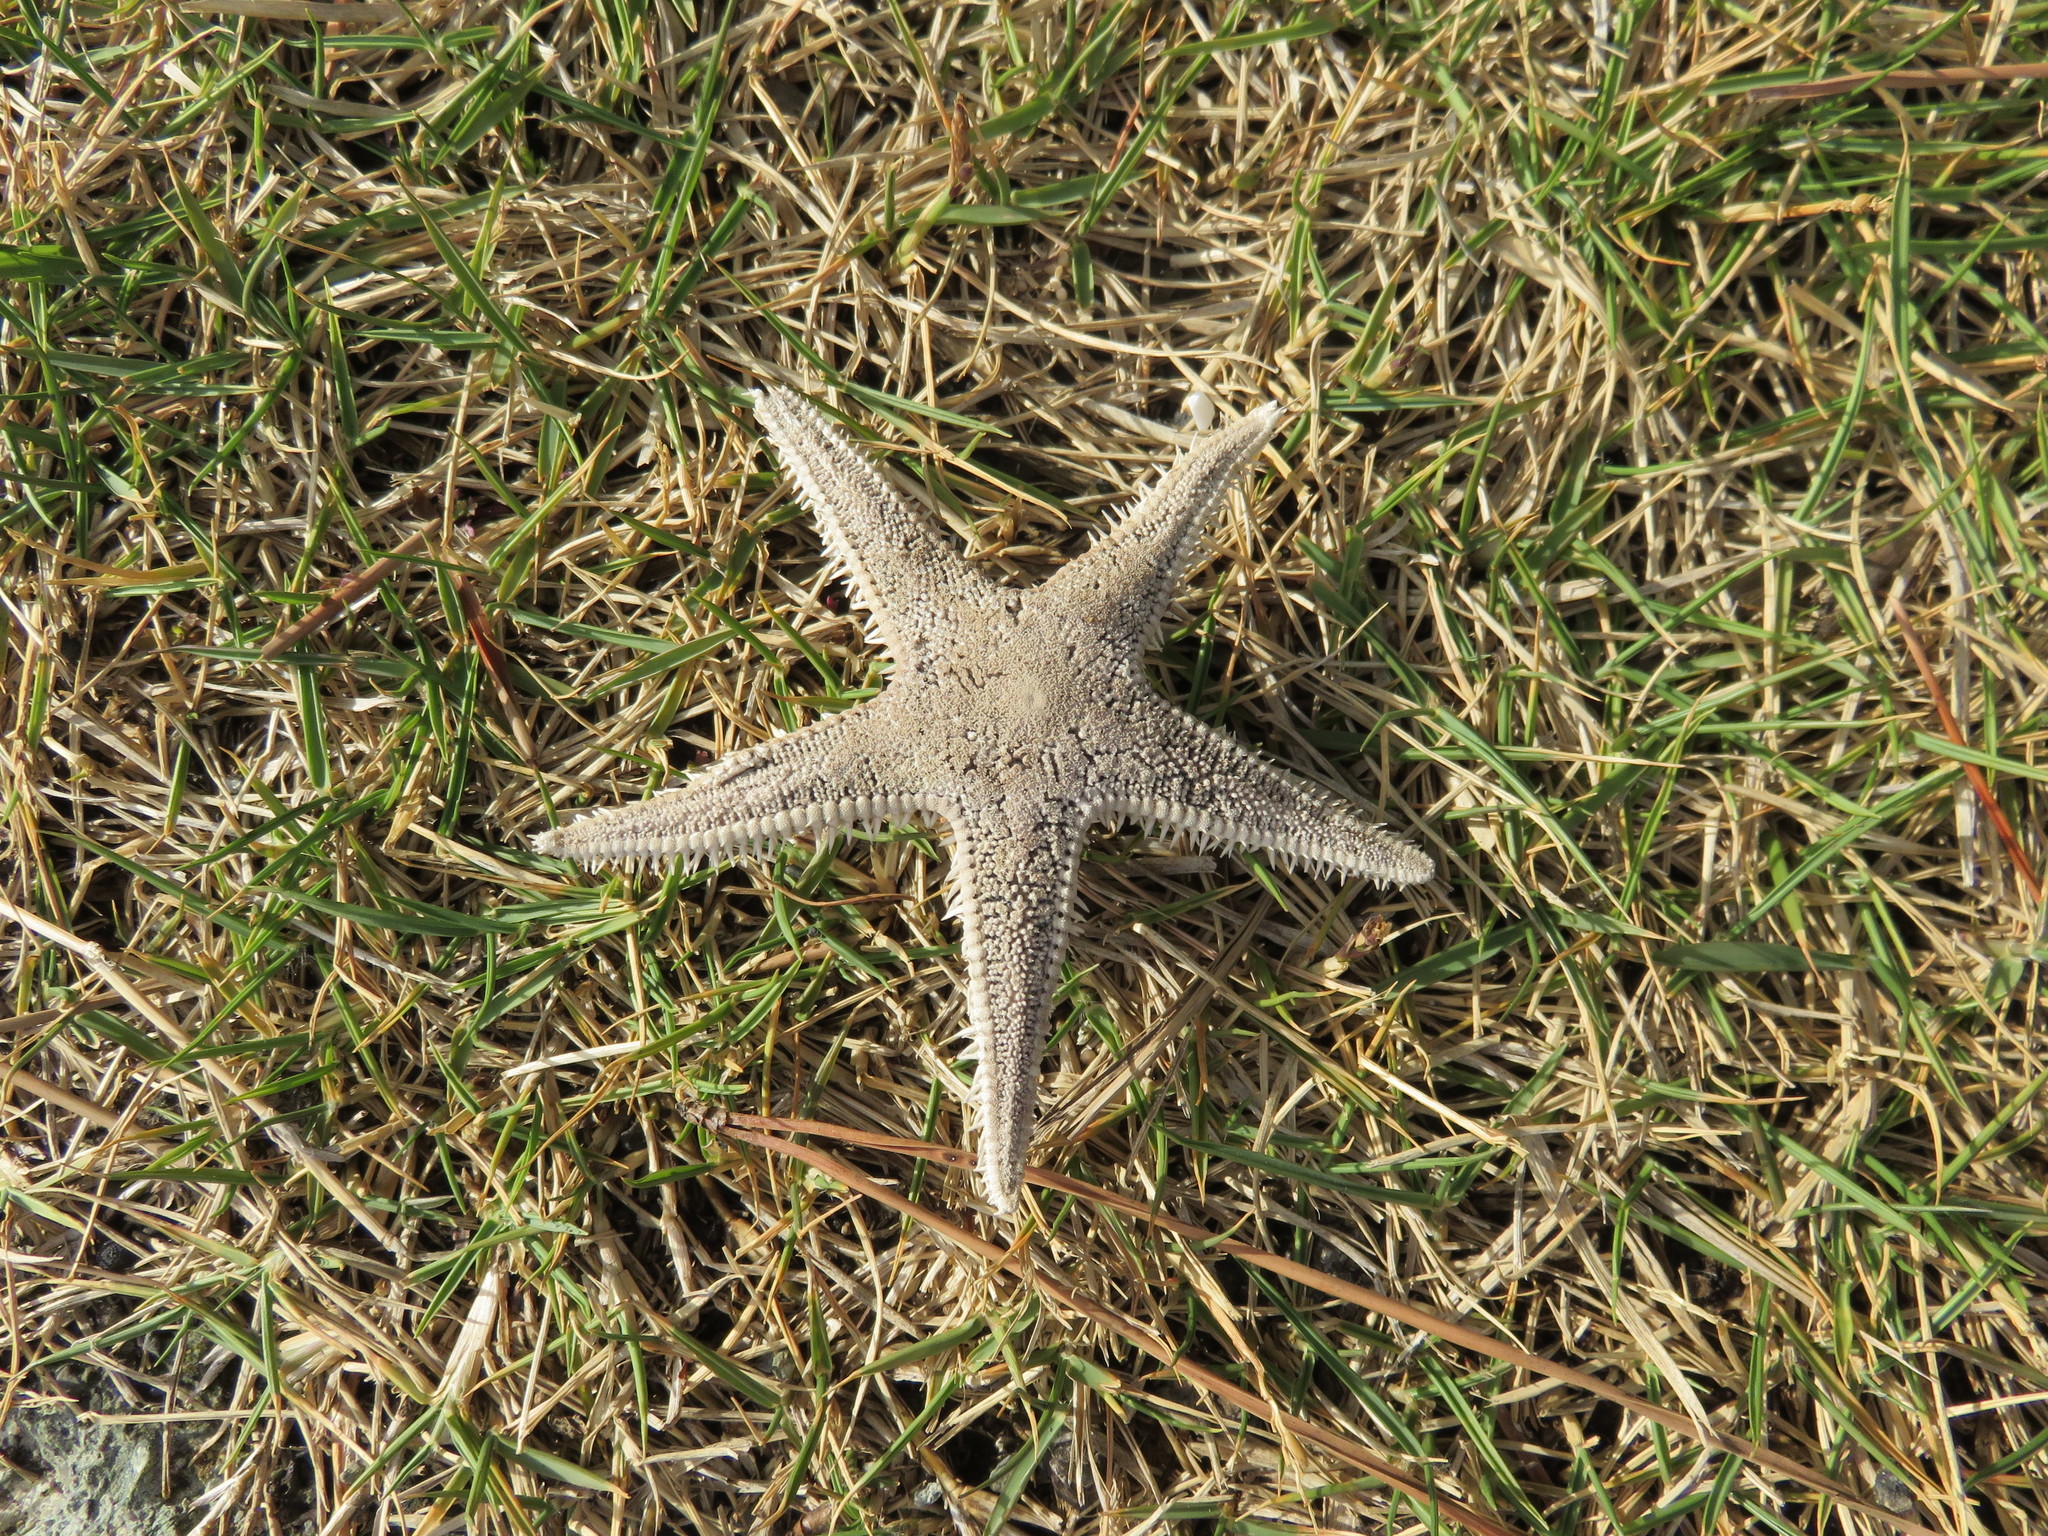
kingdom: Animalia
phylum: Echinodermata
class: Asteroidea
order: Paxillosida
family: Astropectinidae
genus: Astropecten
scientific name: Astropecten
